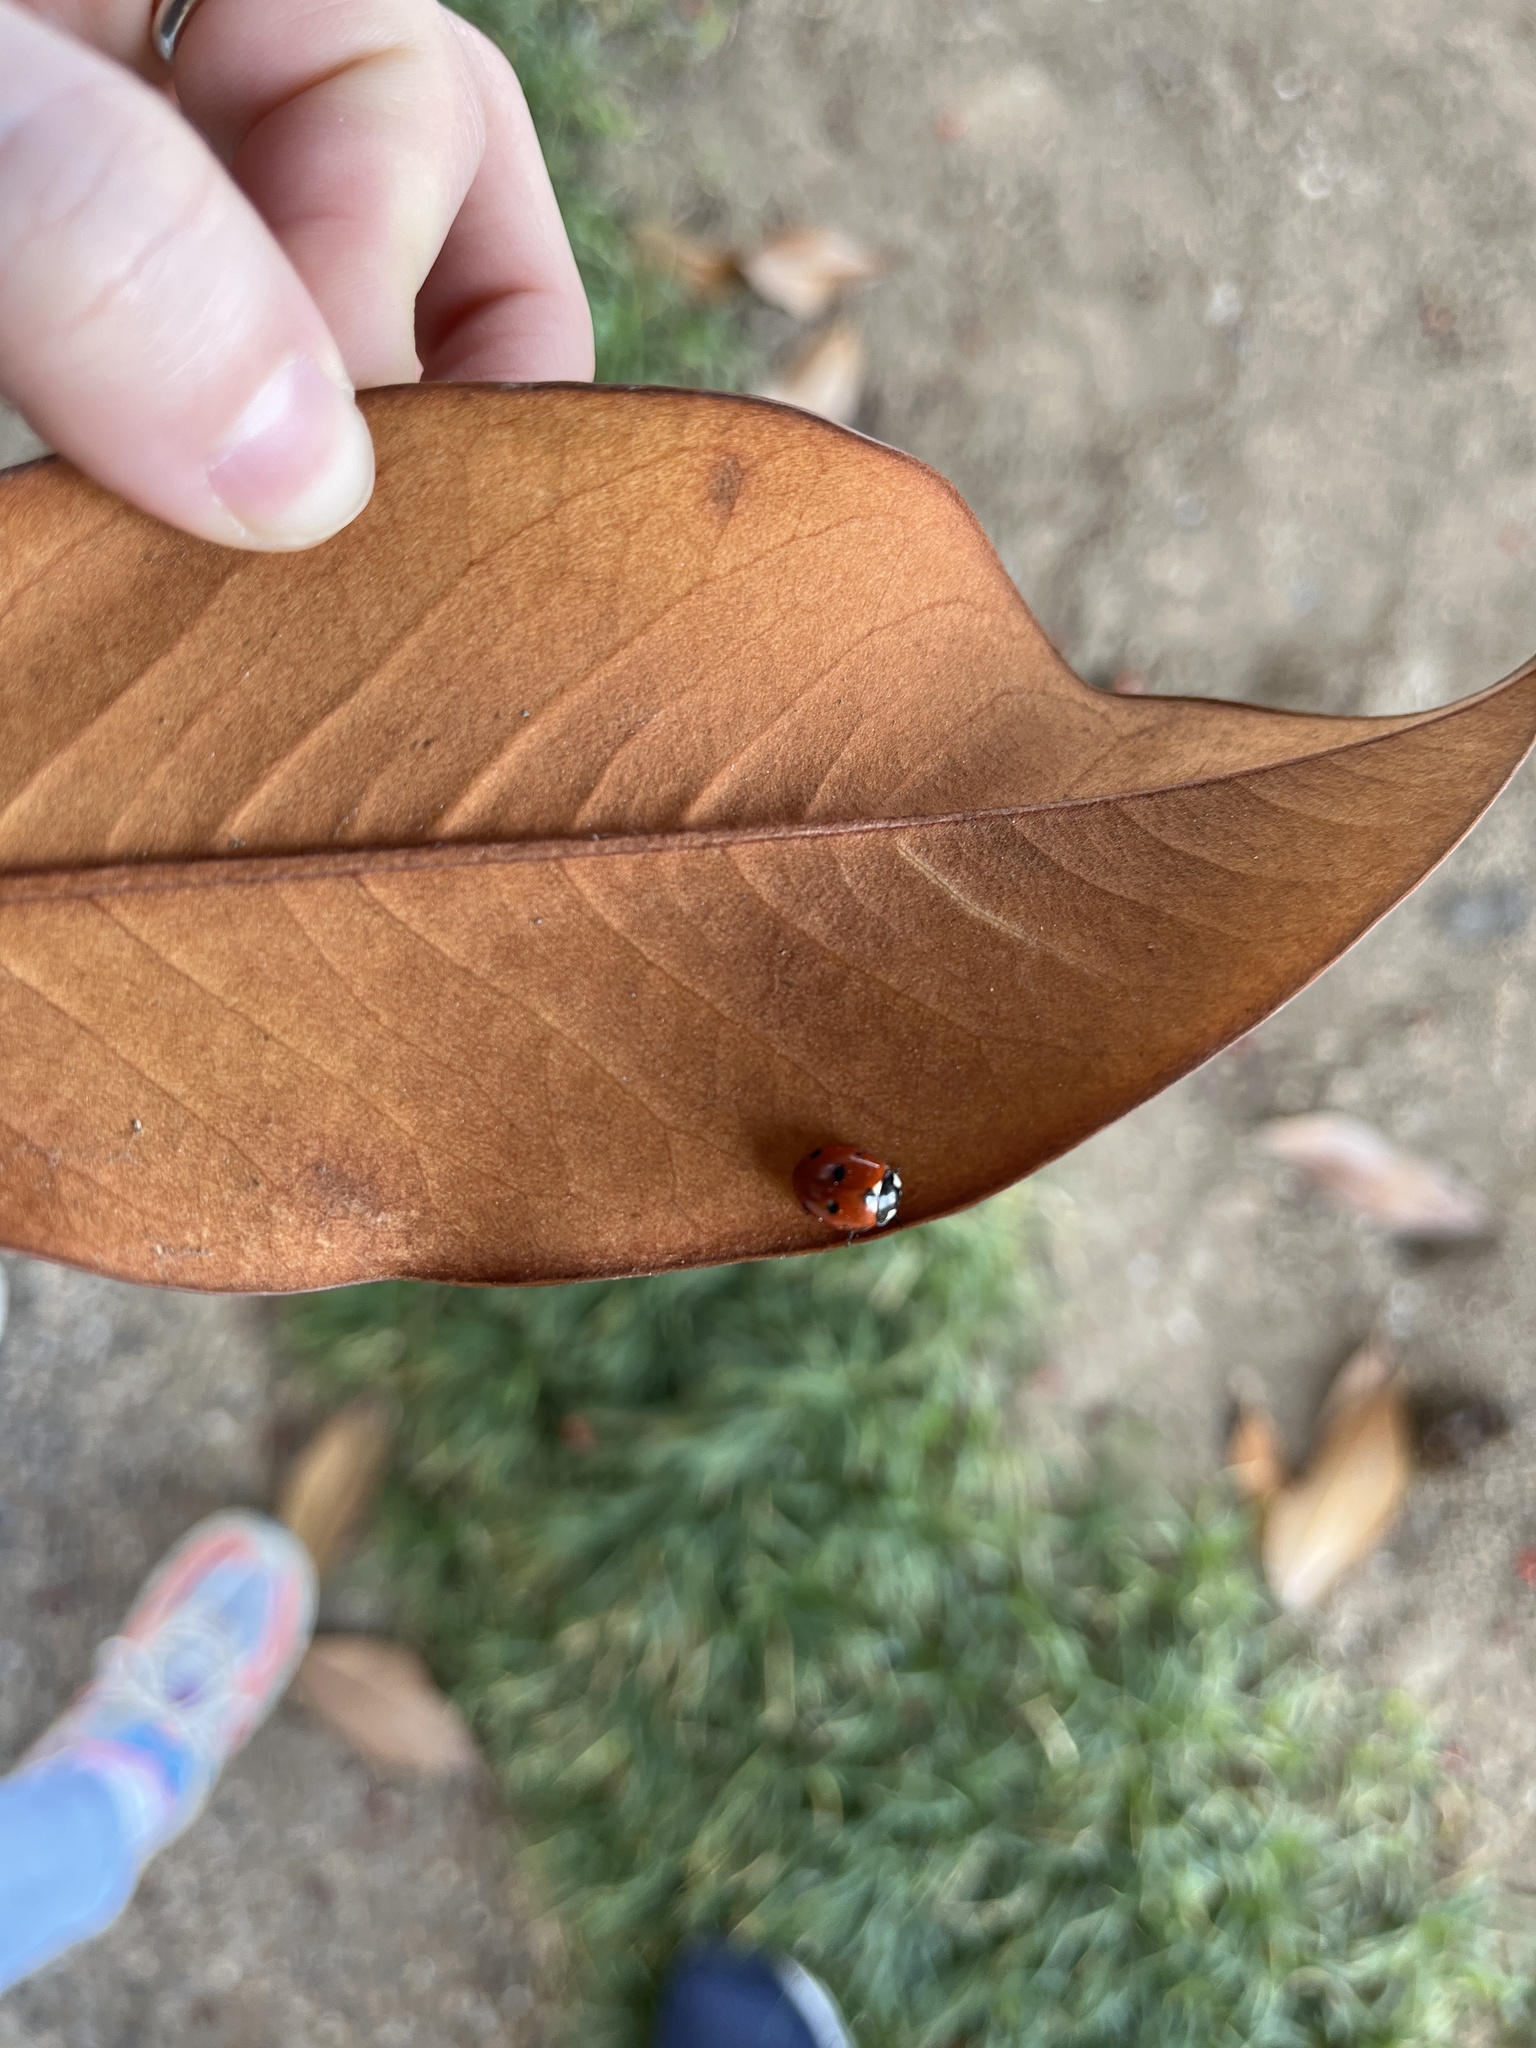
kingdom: Animalia
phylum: Arthropoda
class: Insecta
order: Coleoptera
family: Coccinellidae
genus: Coccinella
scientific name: Coccinella septempunctata
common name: Sevenspotted lady beetle
